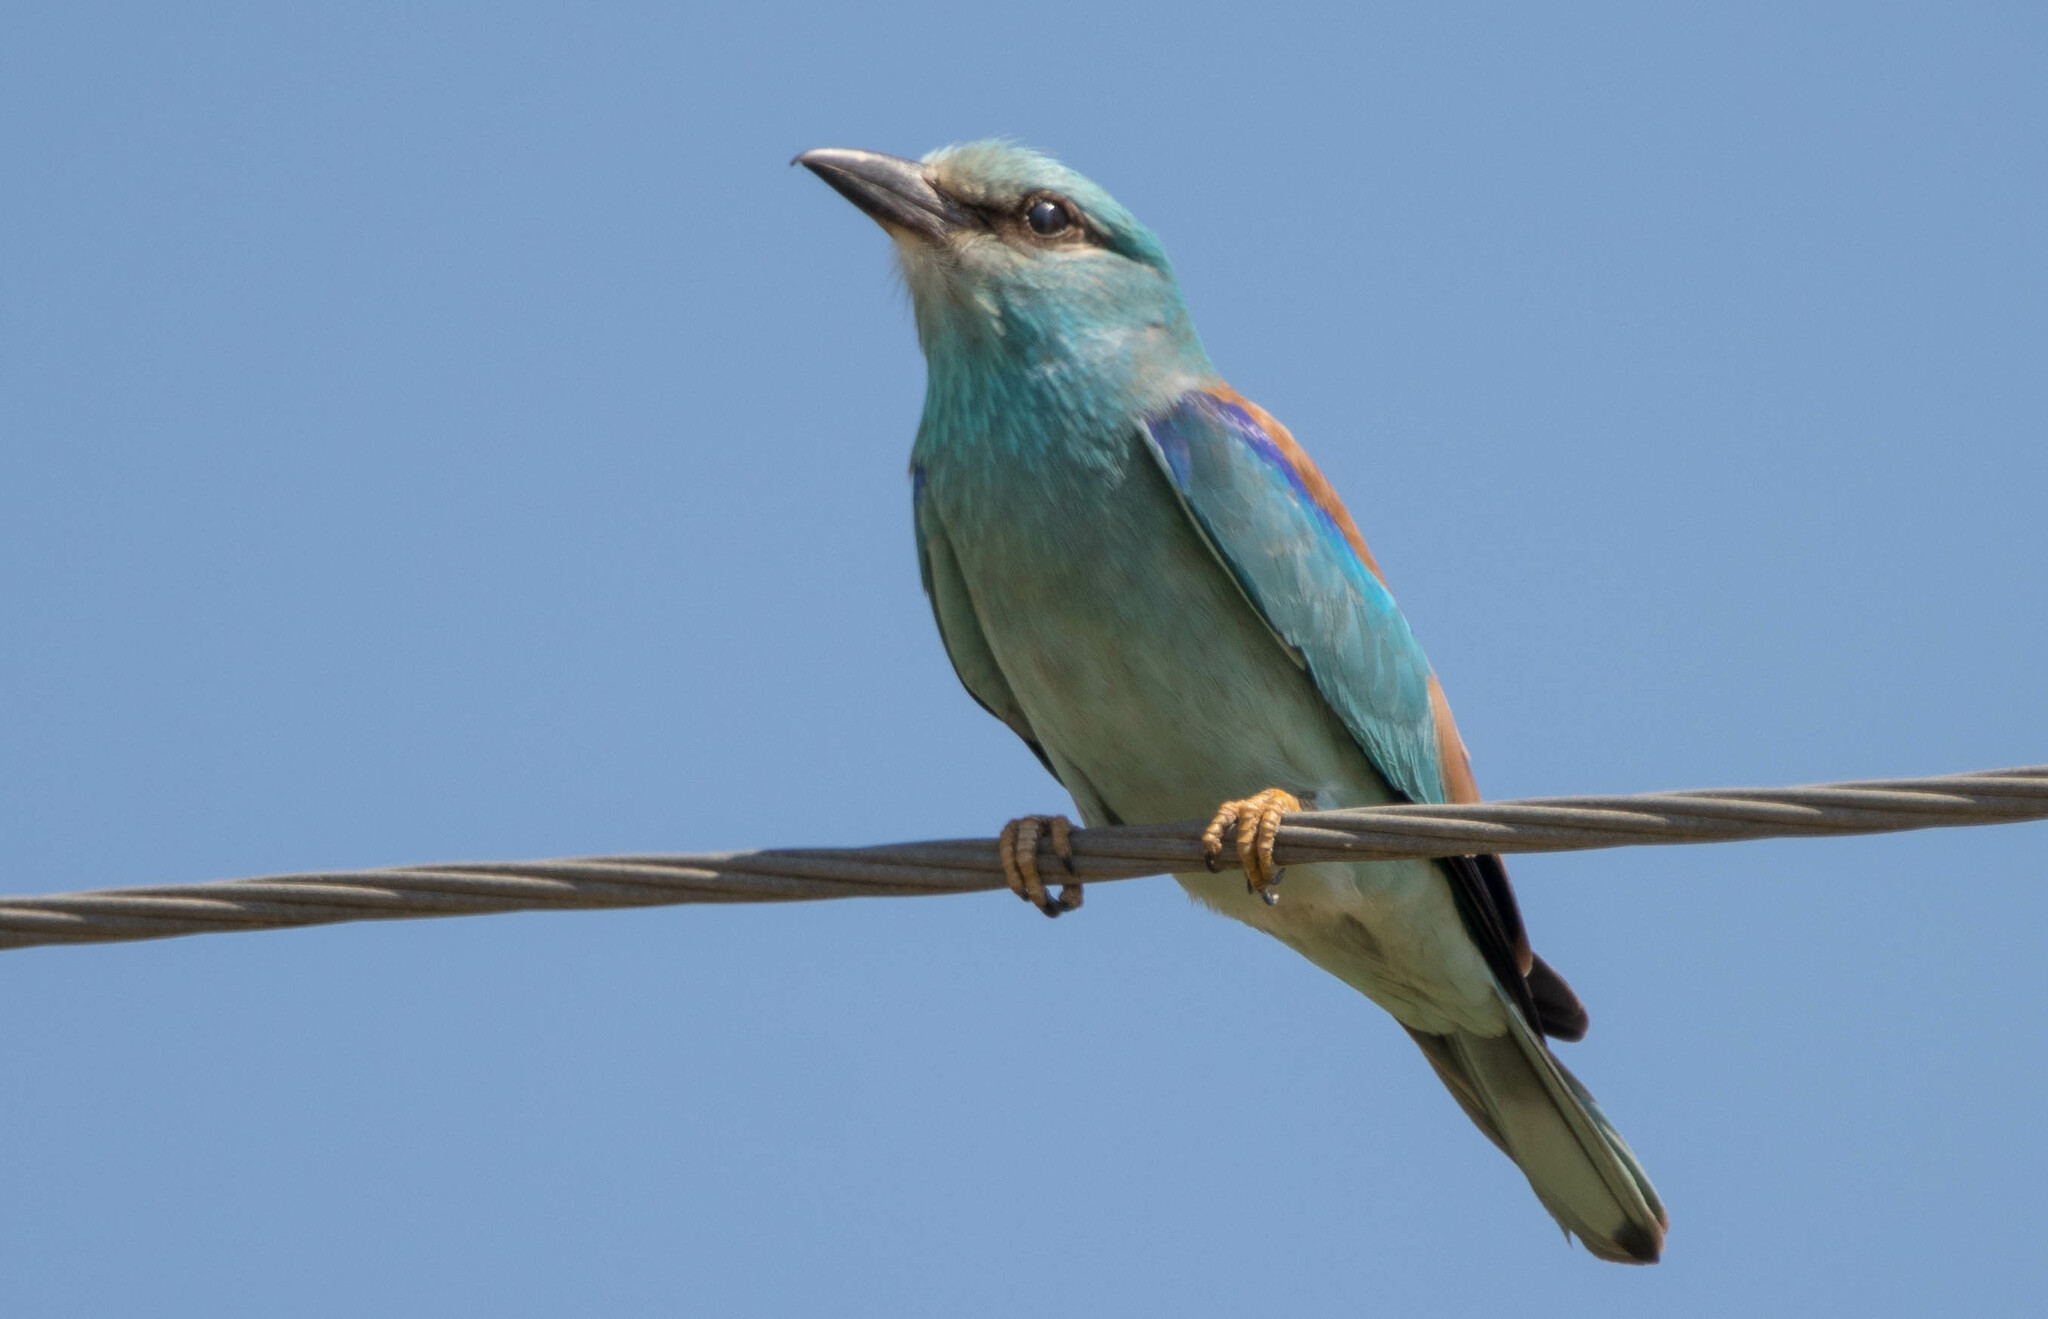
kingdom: Animalia
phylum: Chordata
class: Aves
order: Coraciiformes
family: Coraciidae
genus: Coracias
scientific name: Coracias garrulus
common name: European roller
